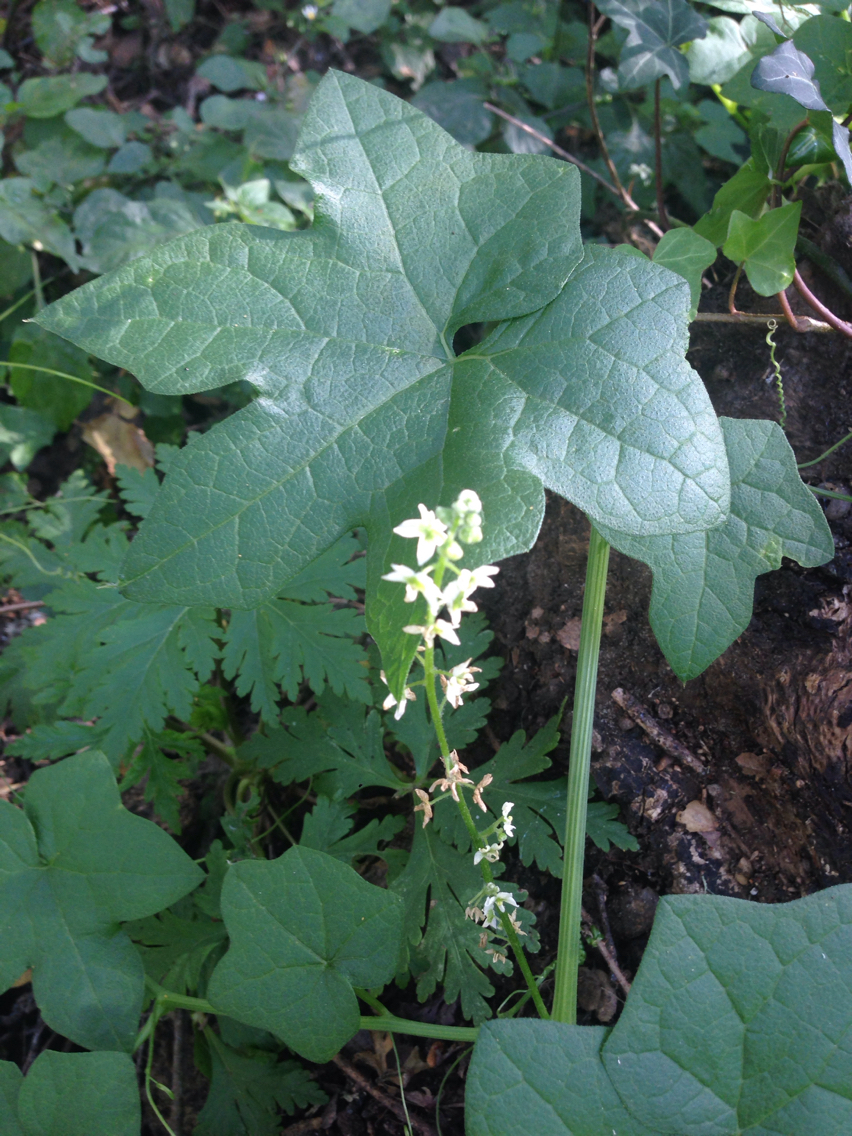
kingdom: Plantae
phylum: Tracheophyta
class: Magnoliopsida
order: Cucurbitales
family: Cucurbitaceae
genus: Marah
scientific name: Marah fabacea
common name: California manroot
